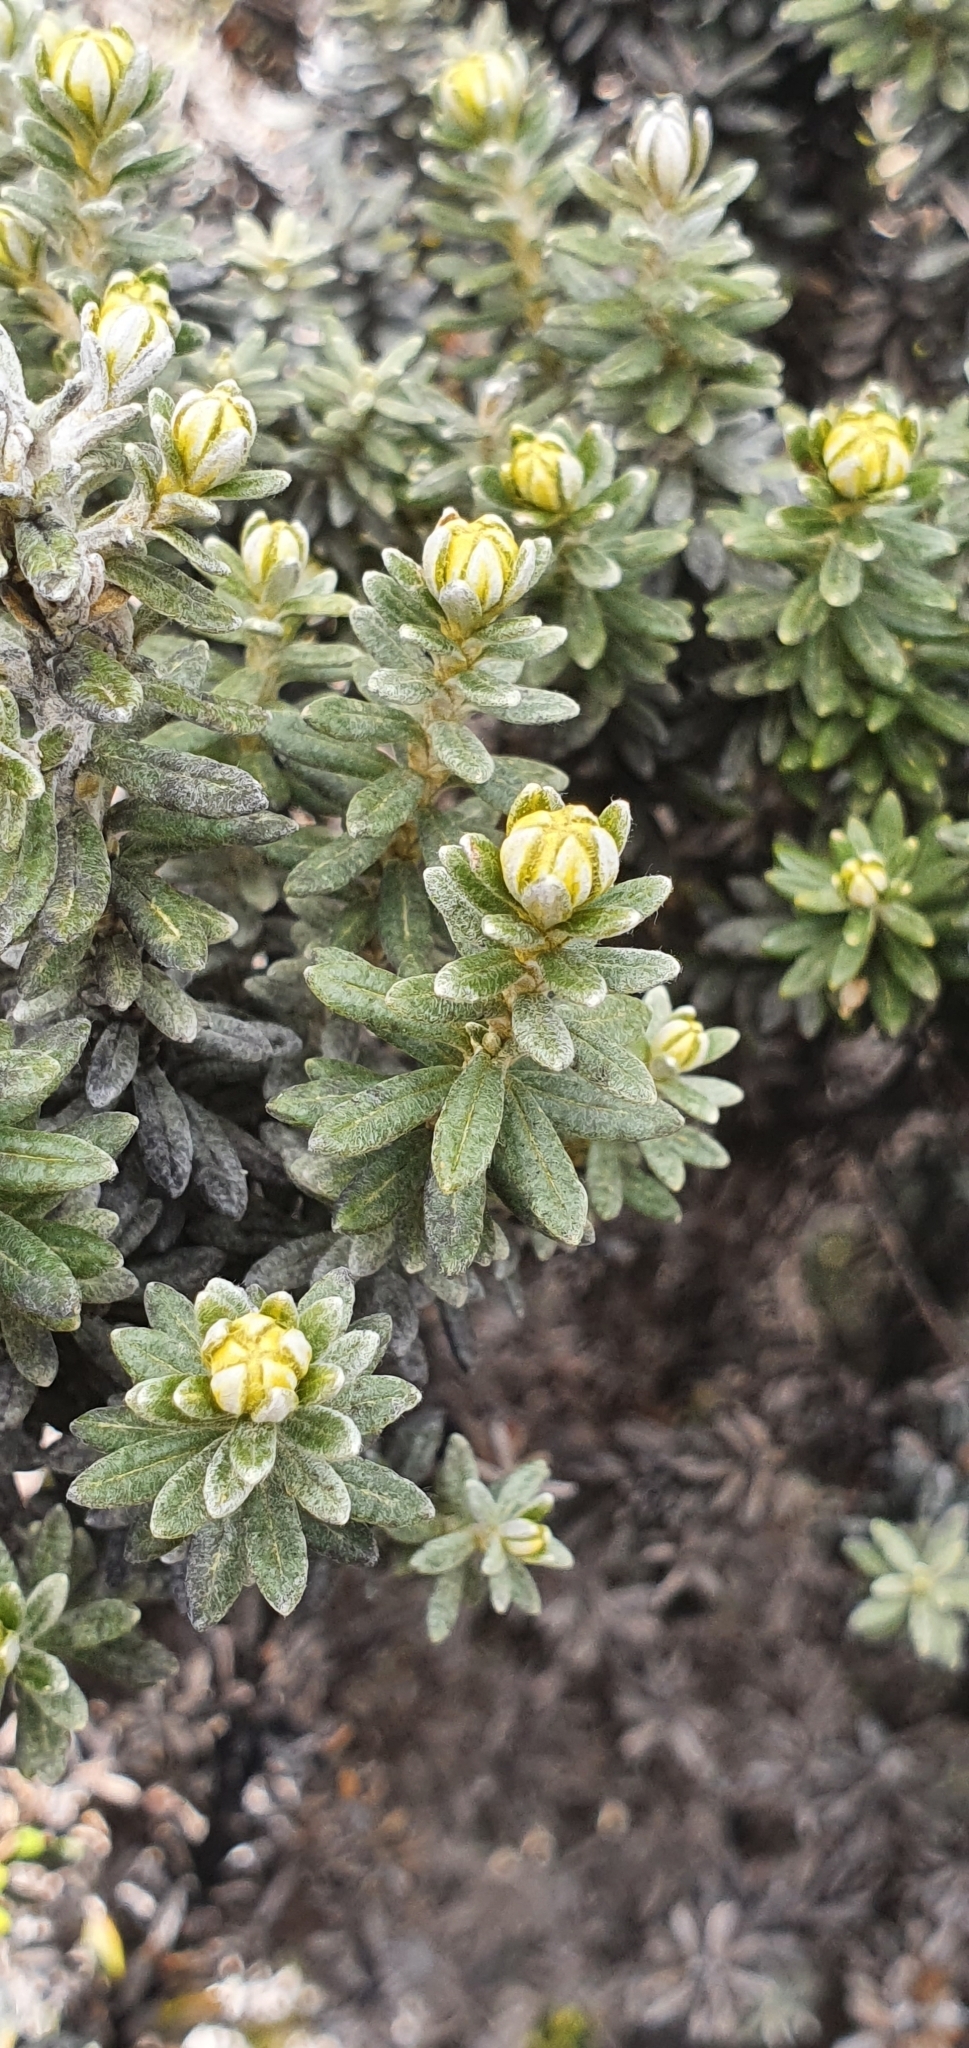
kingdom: Plantae
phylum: Tracheophyta
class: Magnoliopsida
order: Asterales
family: Asteraceae
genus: Ozothamnus
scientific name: Ozothamnus ledifolius
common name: Kerosene-weed
